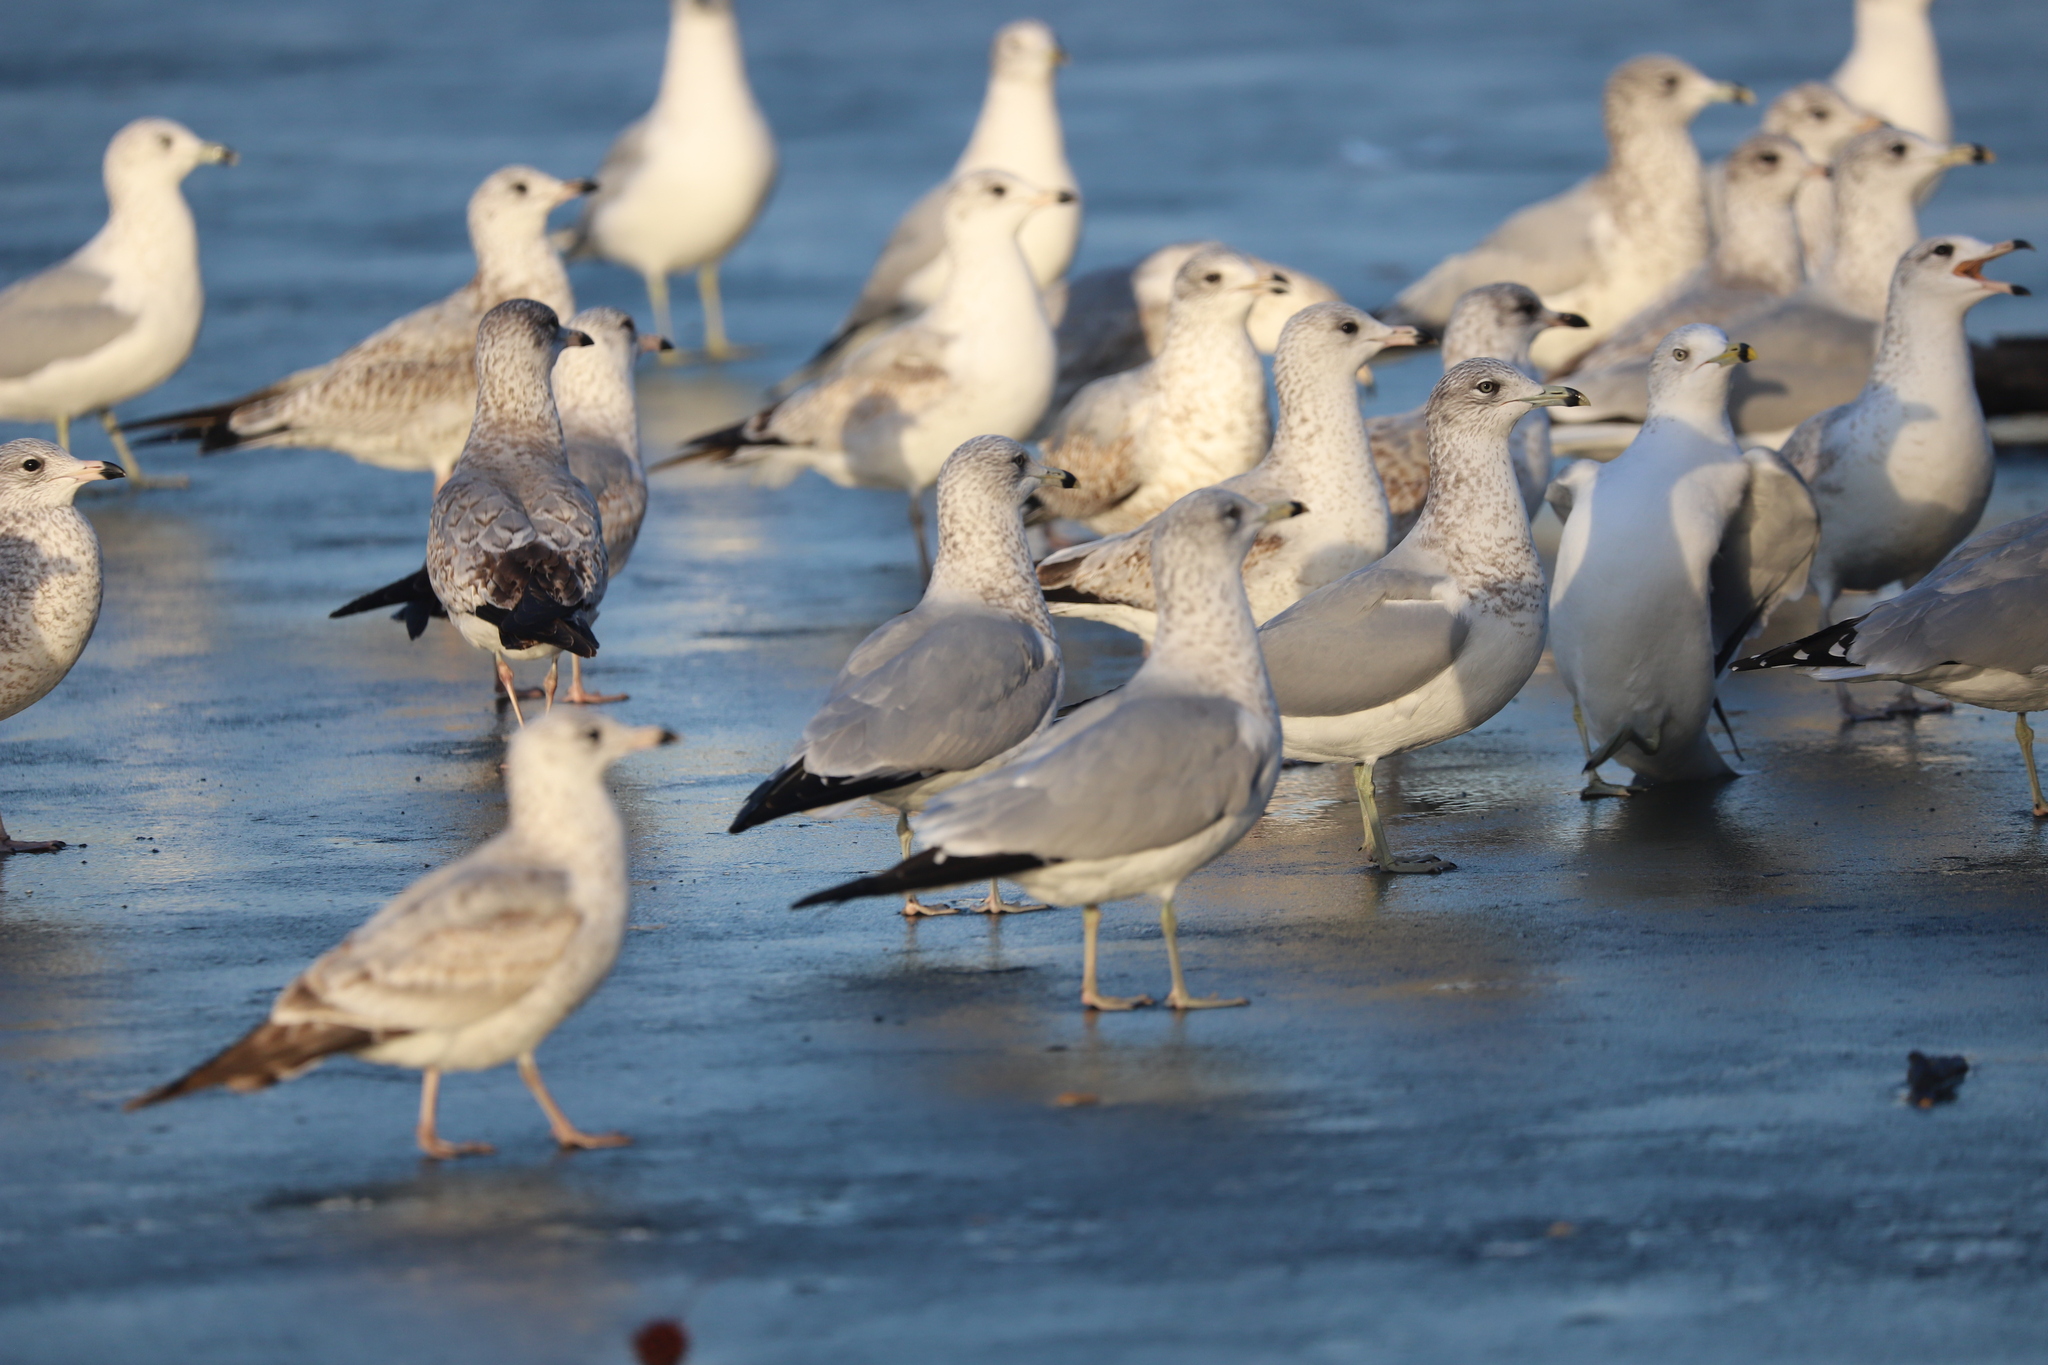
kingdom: Animalia
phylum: Chordata
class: Aves
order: Charadriiformes
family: Laridae
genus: Larus
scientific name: Larus delawarensis
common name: Ring-billed gull
